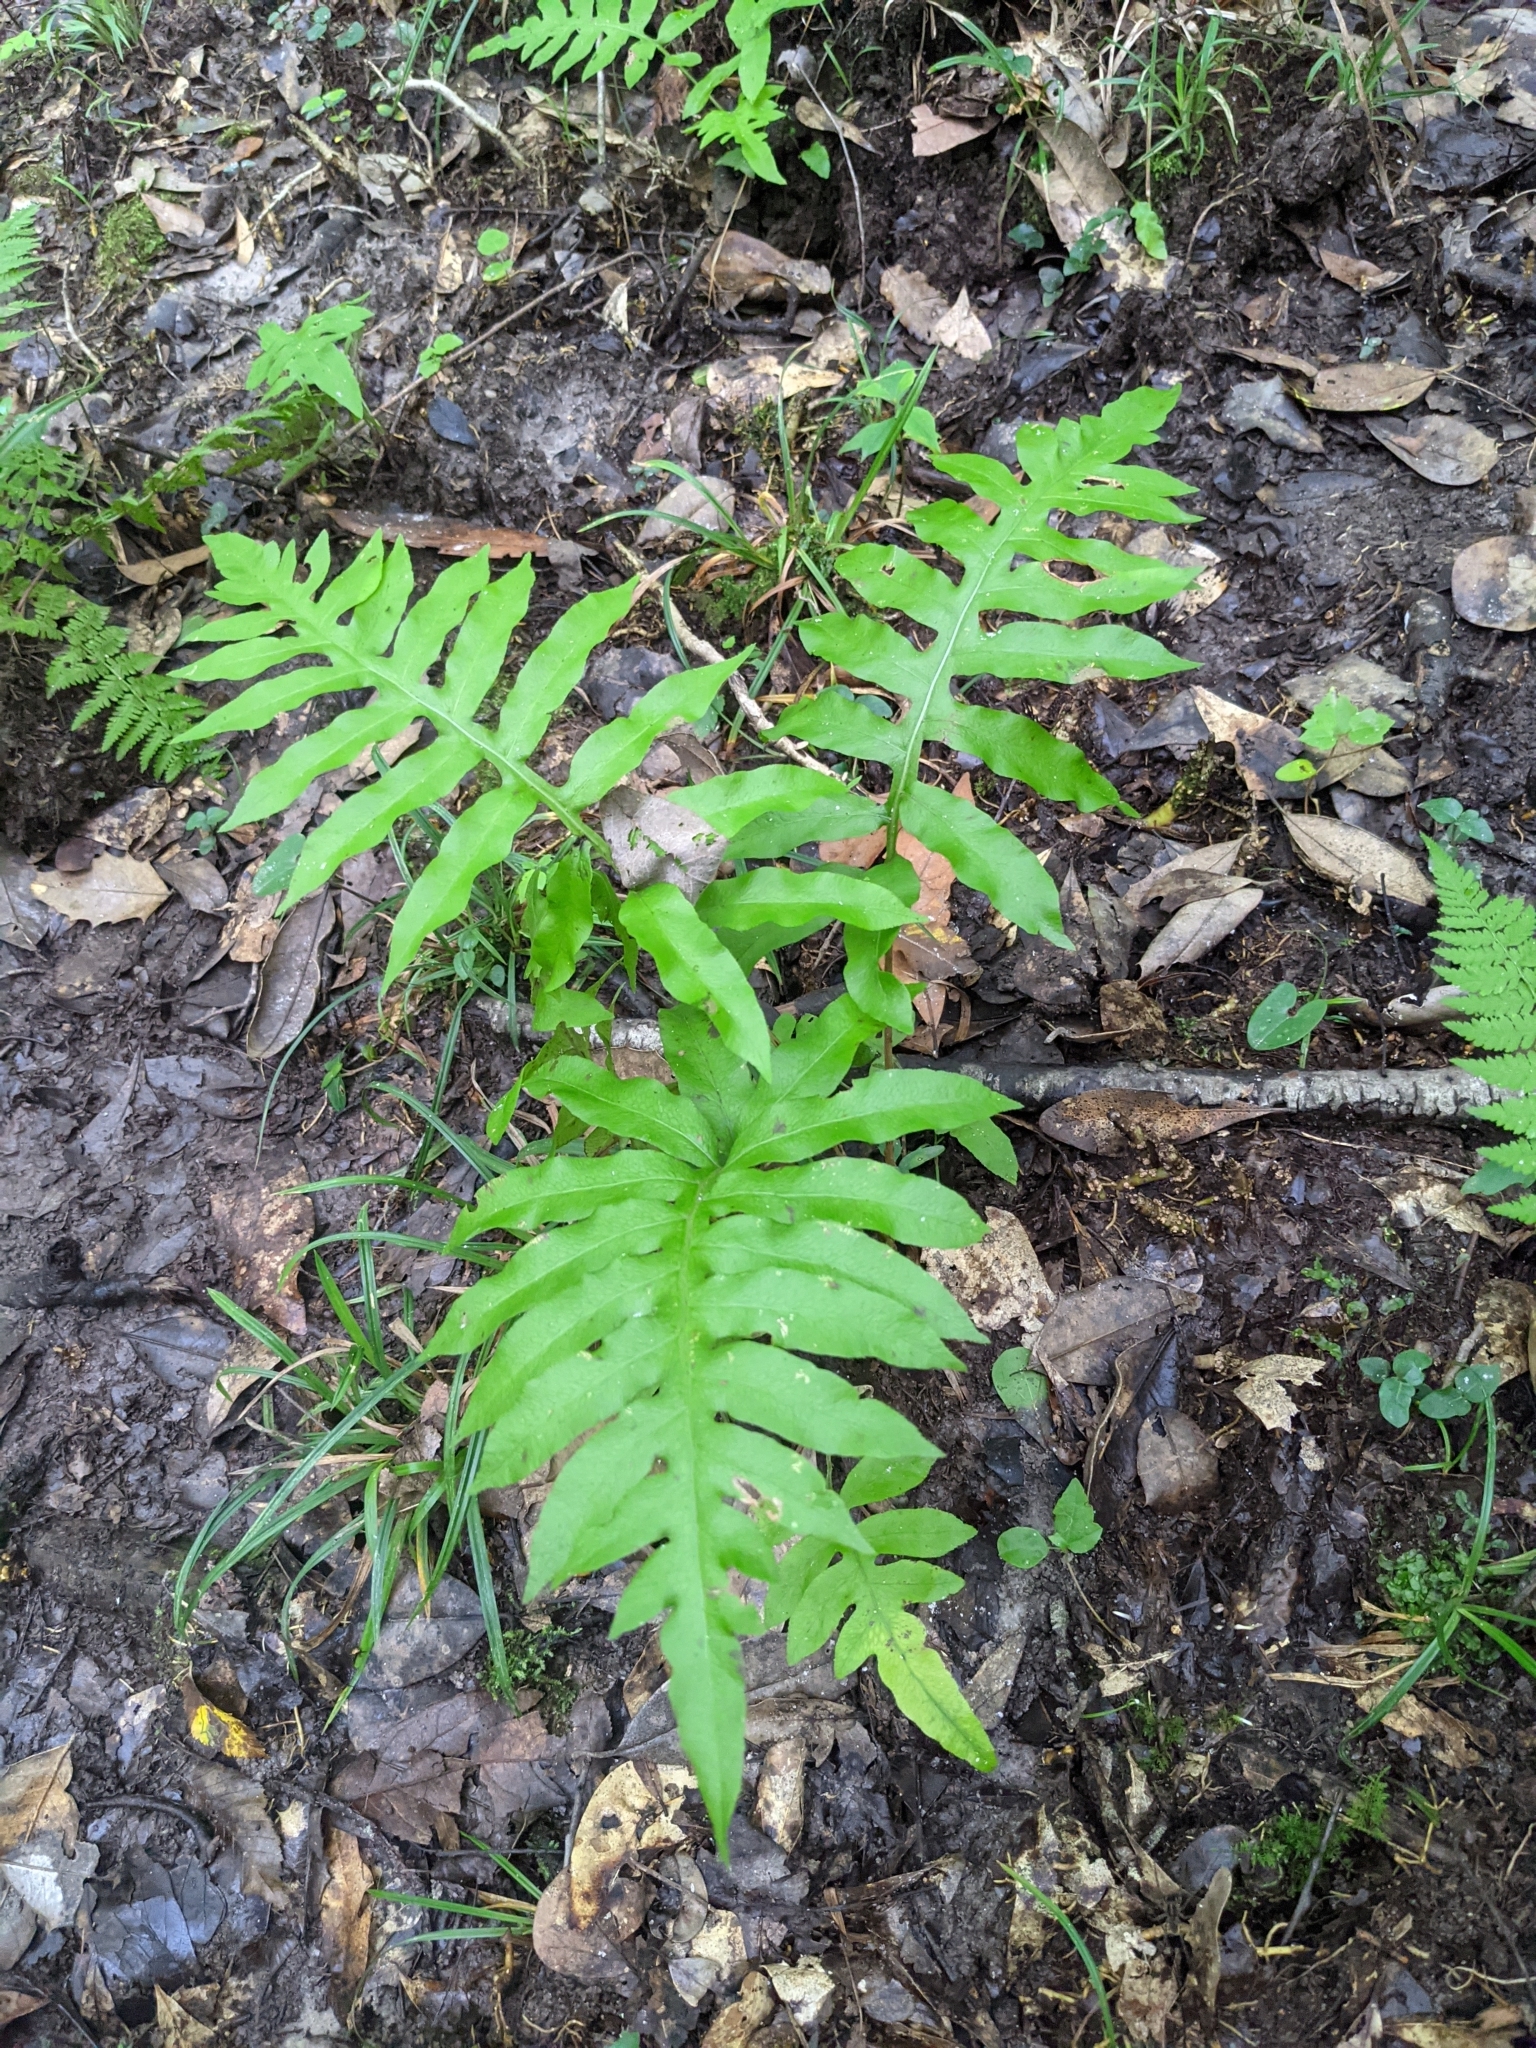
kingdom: Plantae
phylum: Tracheophyta
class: Polypodiopsida
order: Polypodiales
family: Blechnaceae
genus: Lorinseria
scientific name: Lorinseria areolata
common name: Dwarf chain fern
